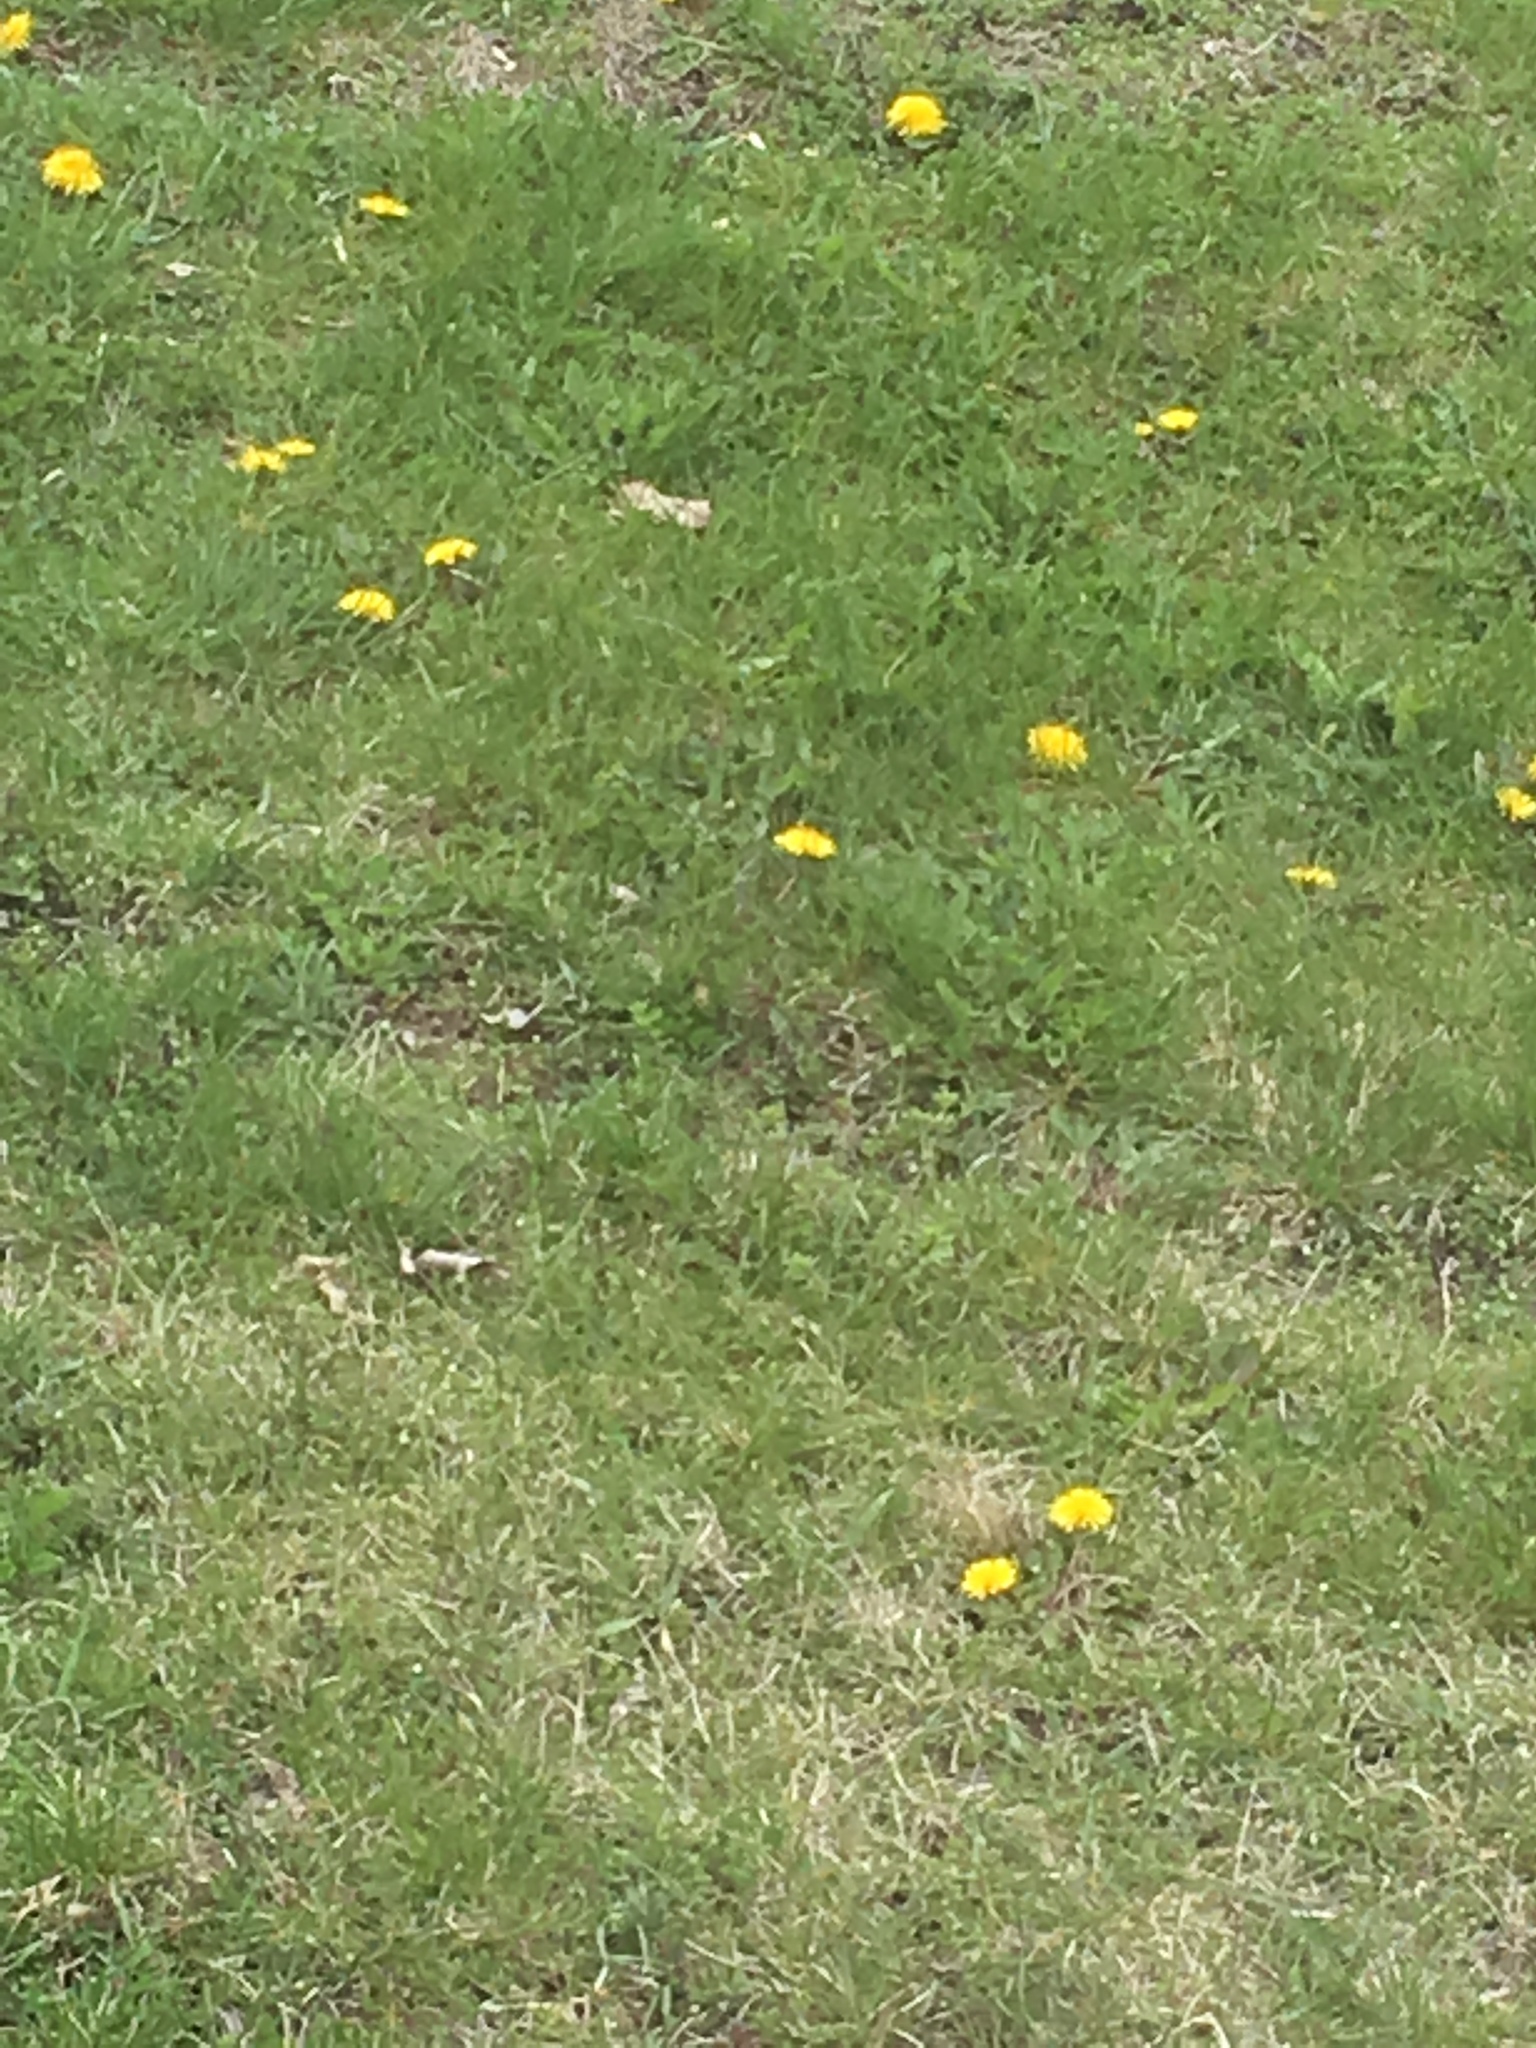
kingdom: Plantae
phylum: Tracheophyta
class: Magnoliopsida
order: Asterales
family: Asteraceae
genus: Taraxacum
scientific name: Taraxacum
